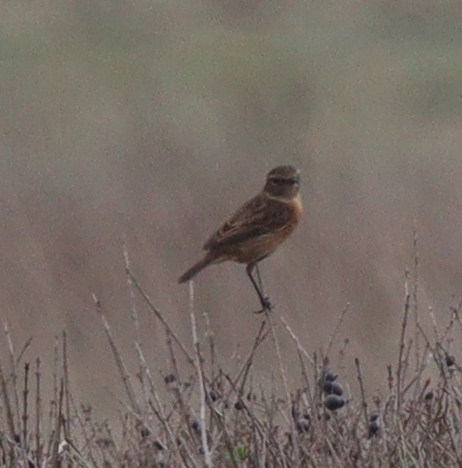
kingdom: Animalia
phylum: Chordata
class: Aves
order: Passeriformes
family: Muscicapidae
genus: Saxicola
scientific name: Saxicola rubicola
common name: European stonechat
